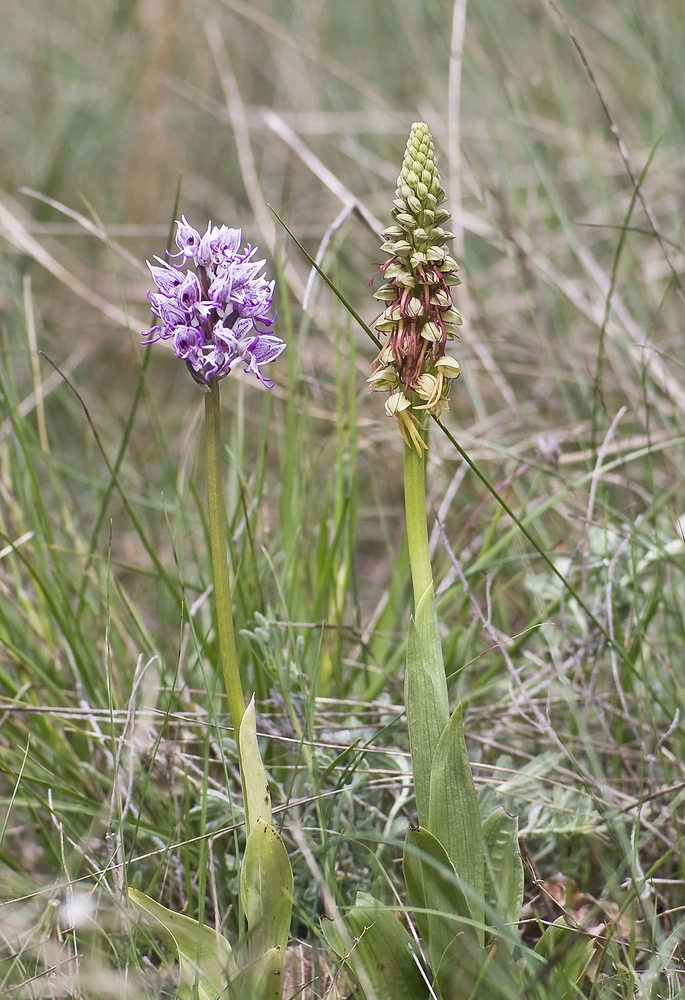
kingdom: Plantae
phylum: Tracheophyta
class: Liliopsida
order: Asparagales
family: Orchidaceae
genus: Orchis
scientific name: Orchis simia
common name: Monkey orchid
